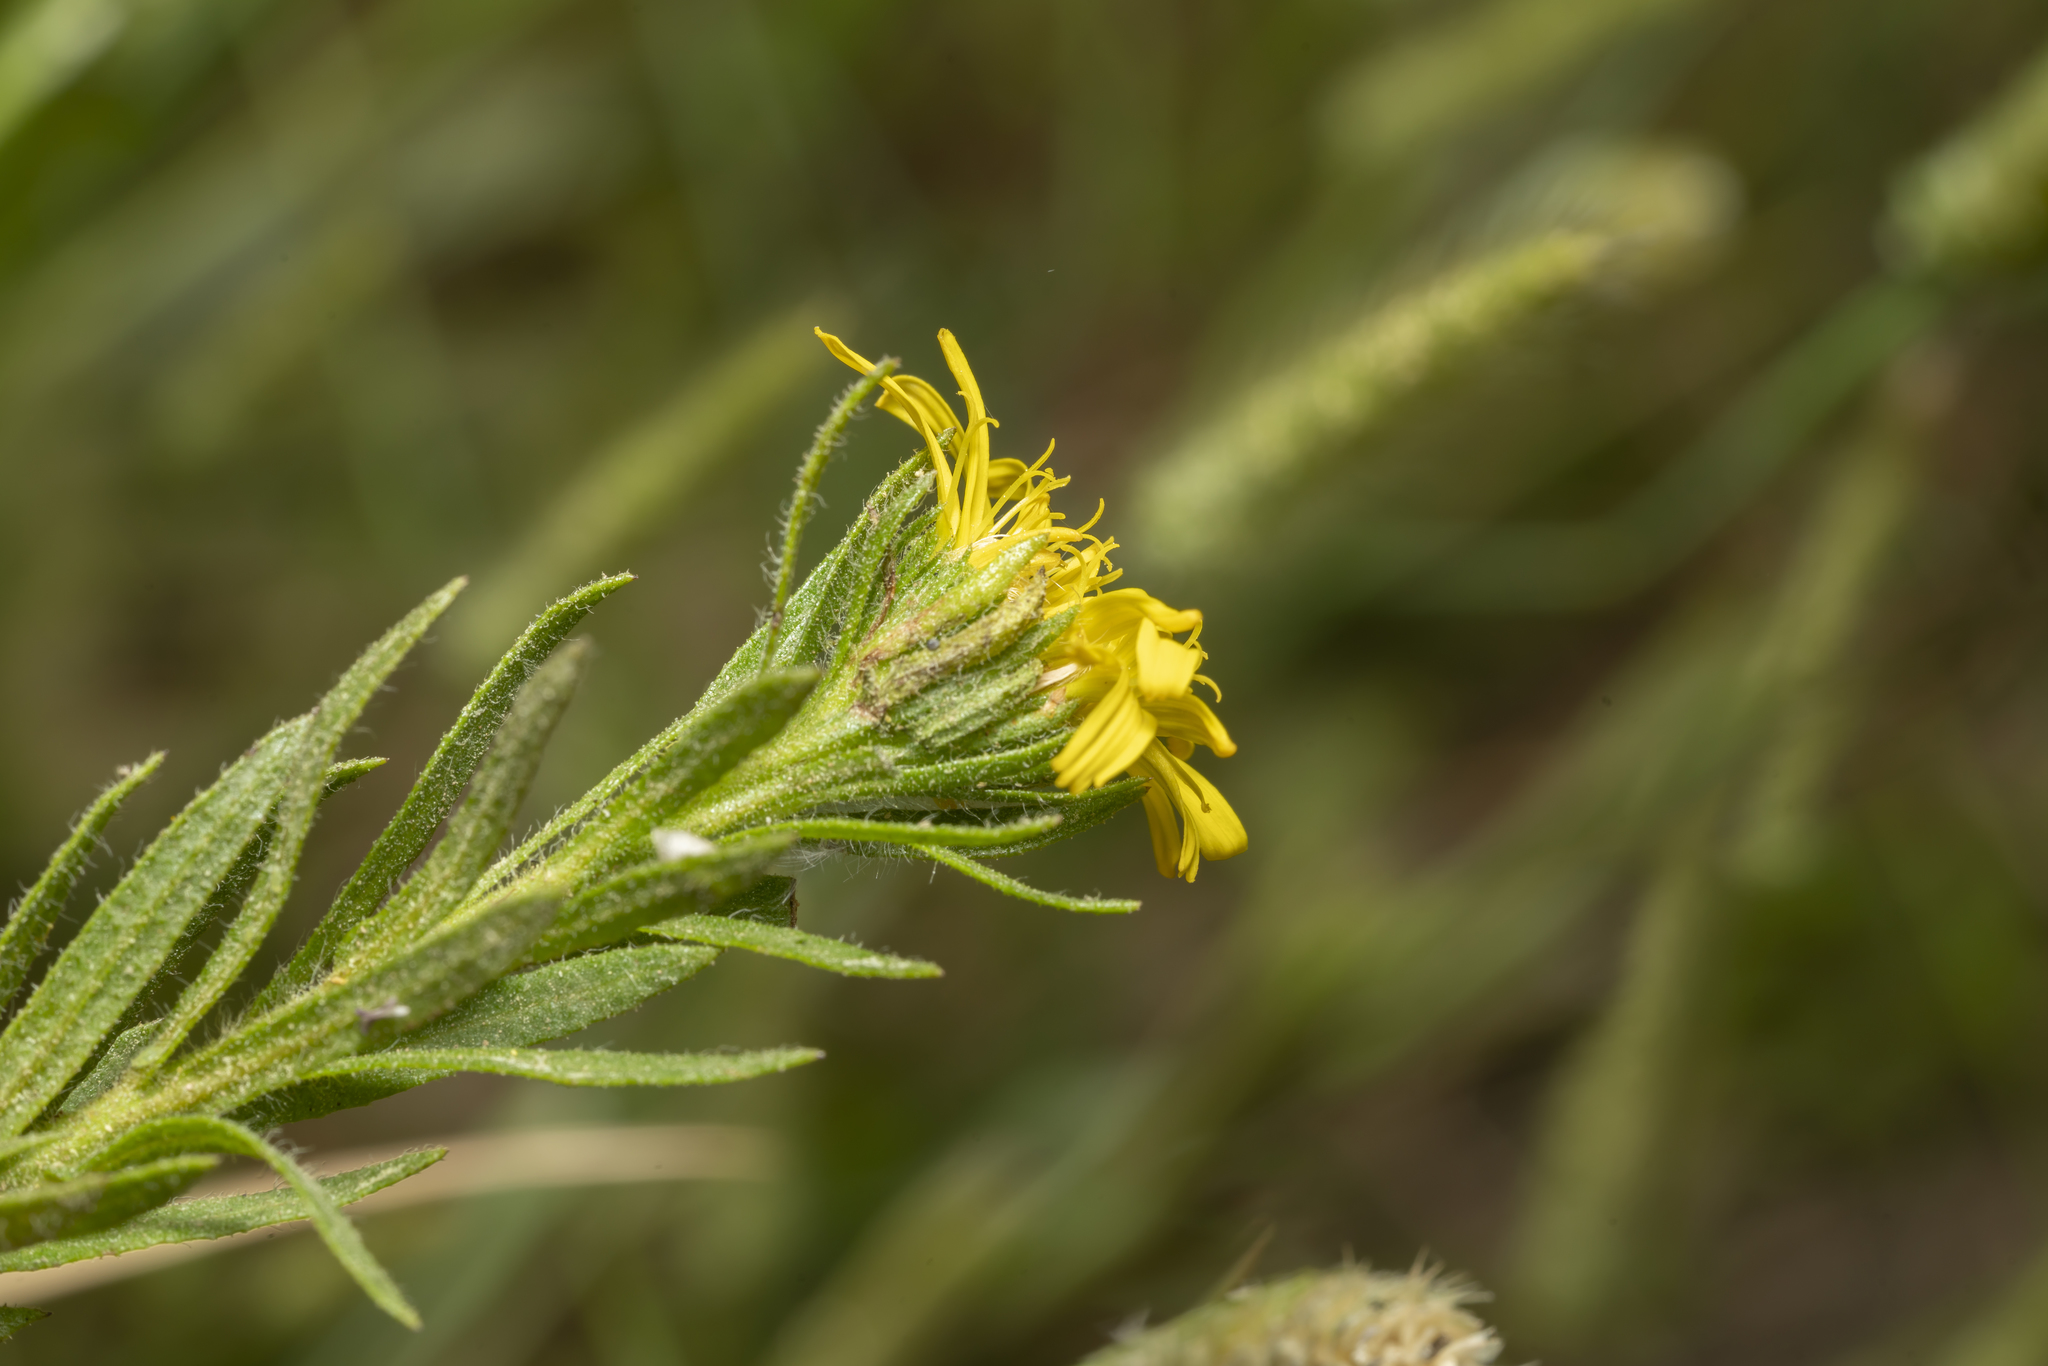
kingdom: Plantae
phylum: Tracheophyta
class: Magnoliopsida
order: Asterales
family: Asteraceae
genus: Dittrichia
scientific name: Dittrichia viscosa
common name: Woody fleabane
